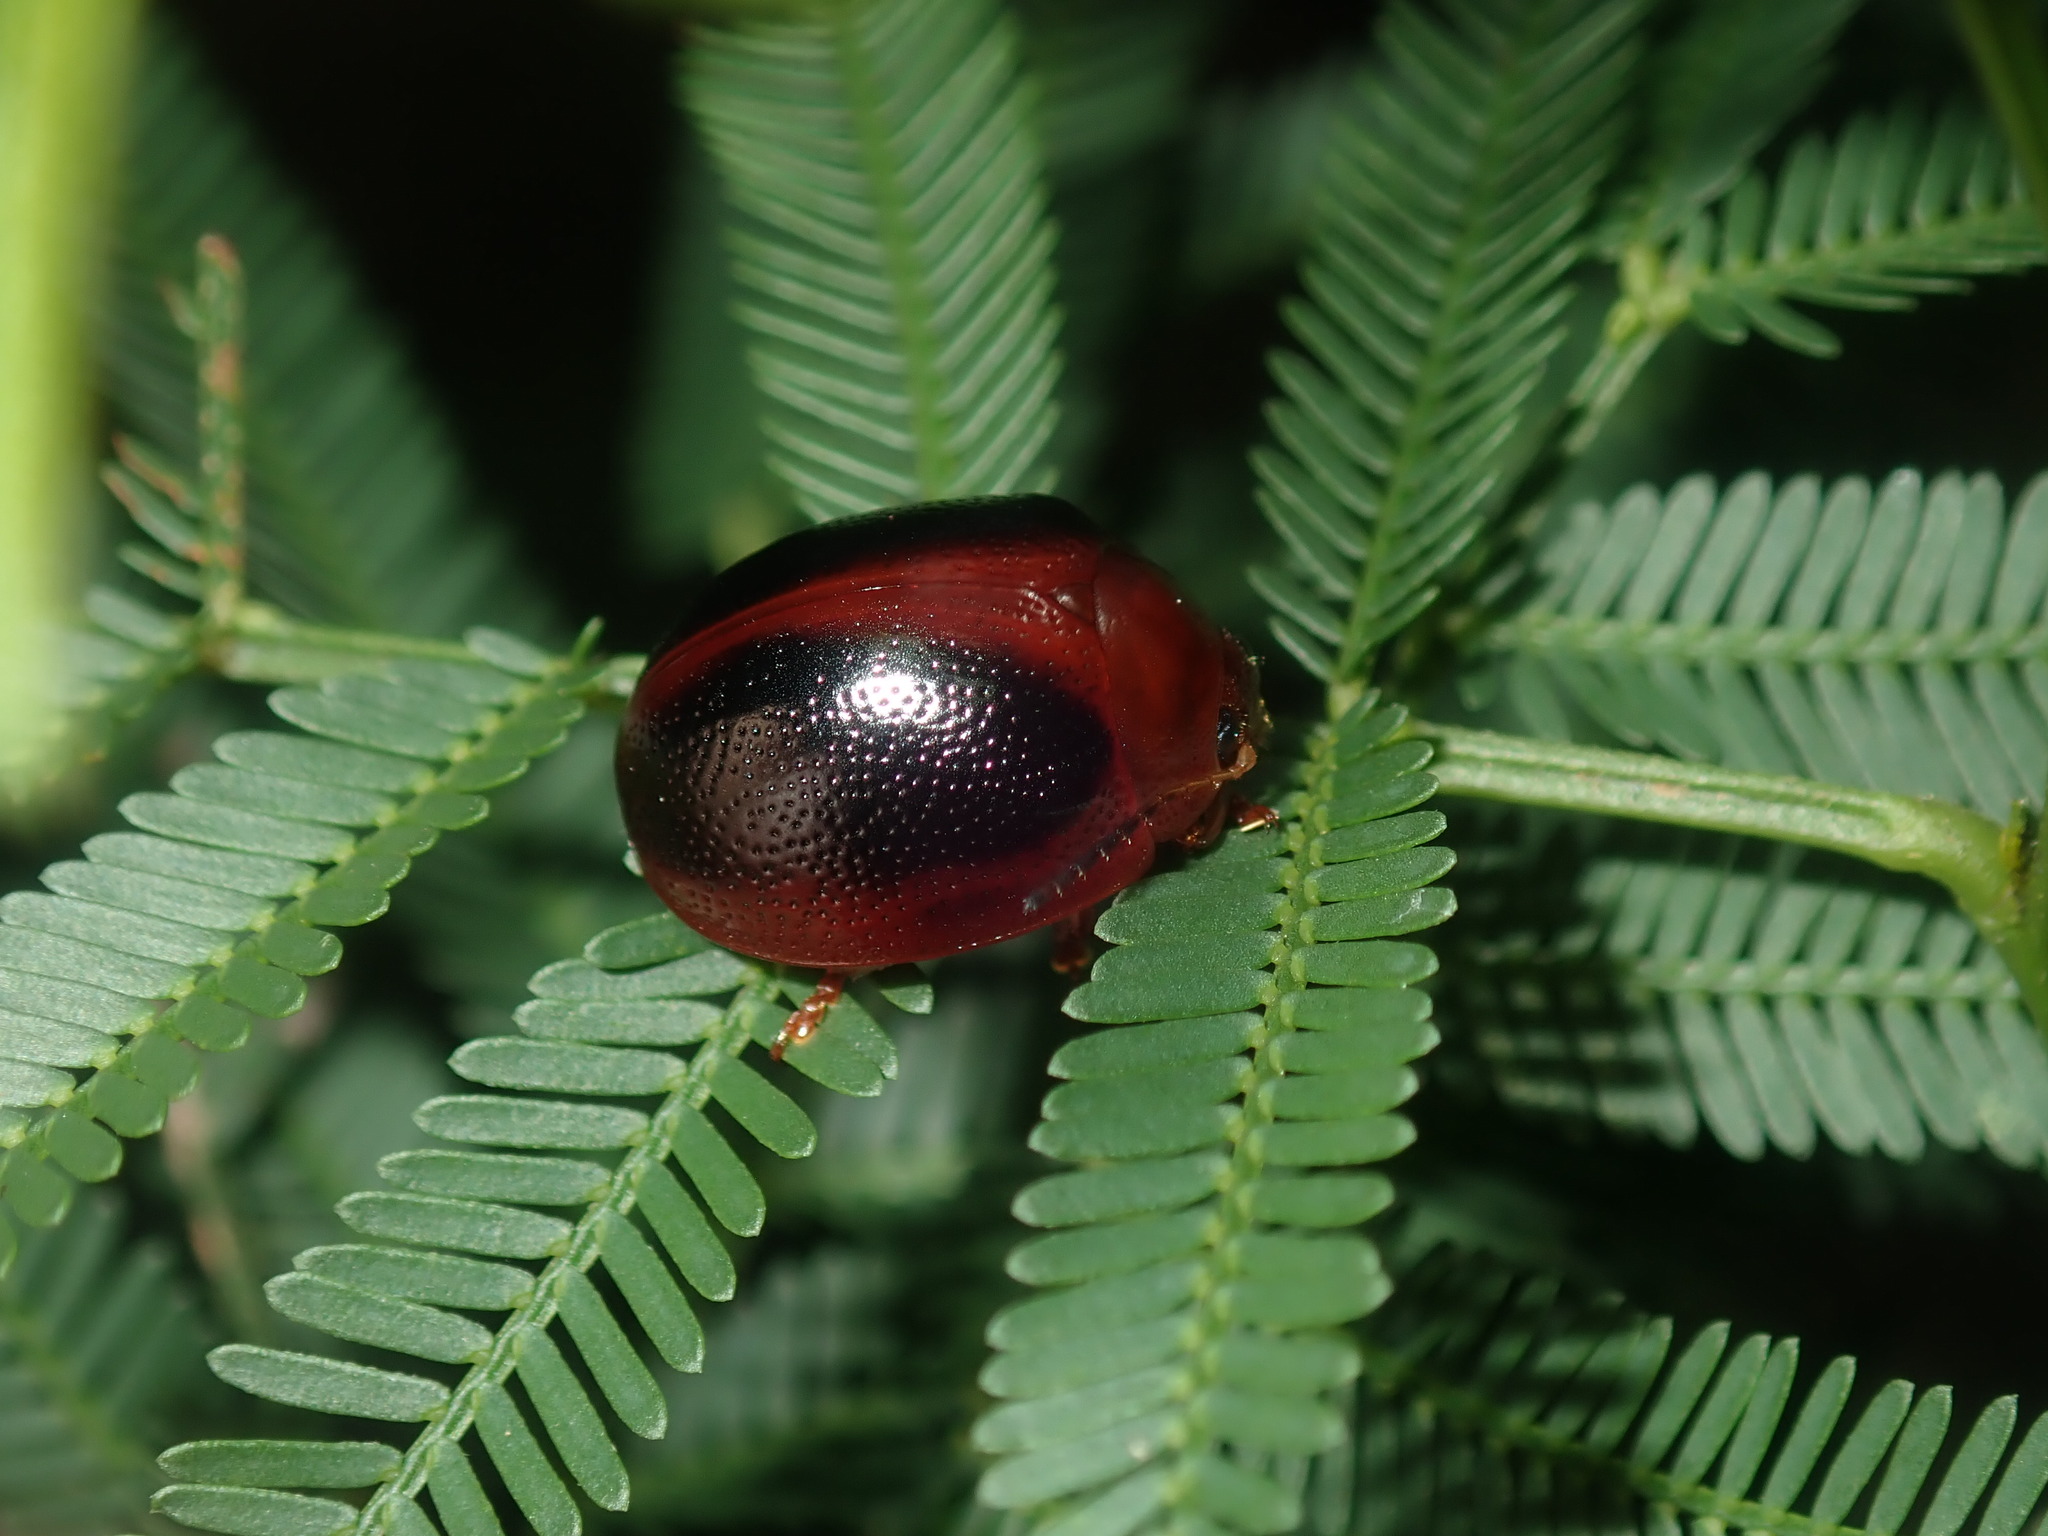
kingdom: Animalia
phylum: Arthropoda
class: Insecta
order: Coleoptera
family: Chrysomelidae
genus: Dicranosterna
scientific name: Dicranosterna
